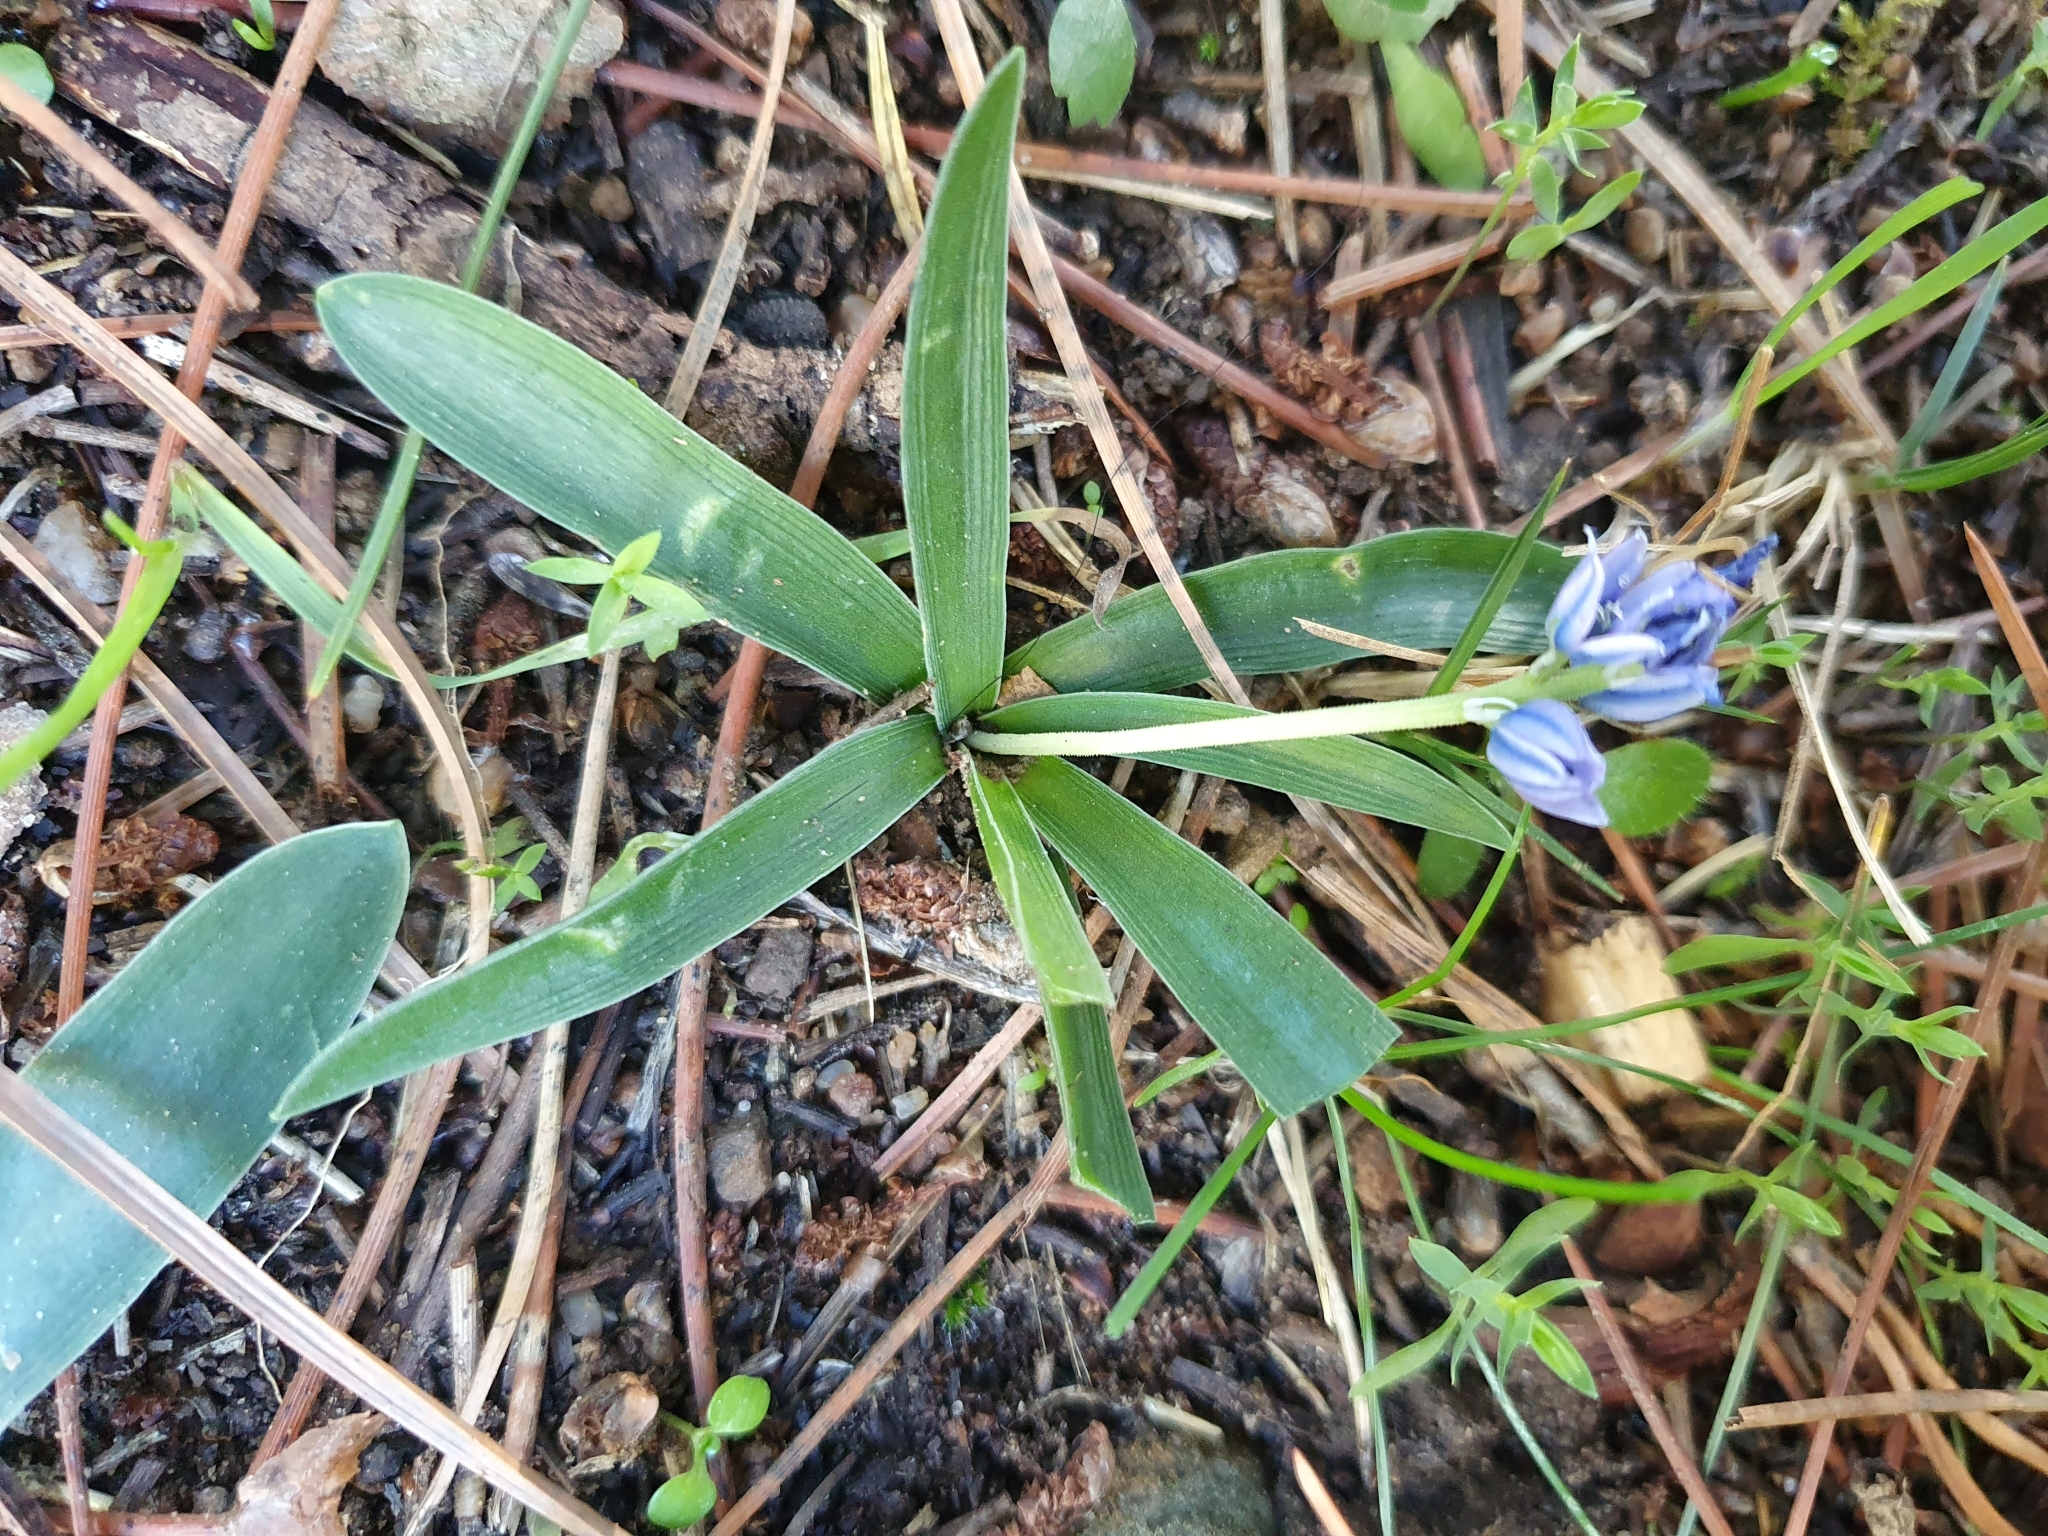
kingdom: Plantae
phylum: Tracheophyta
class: Liliopsida
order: Asparagales
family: Asparagaceae
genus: Hyacinthoides
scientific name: Hyacinthoides lingulata
